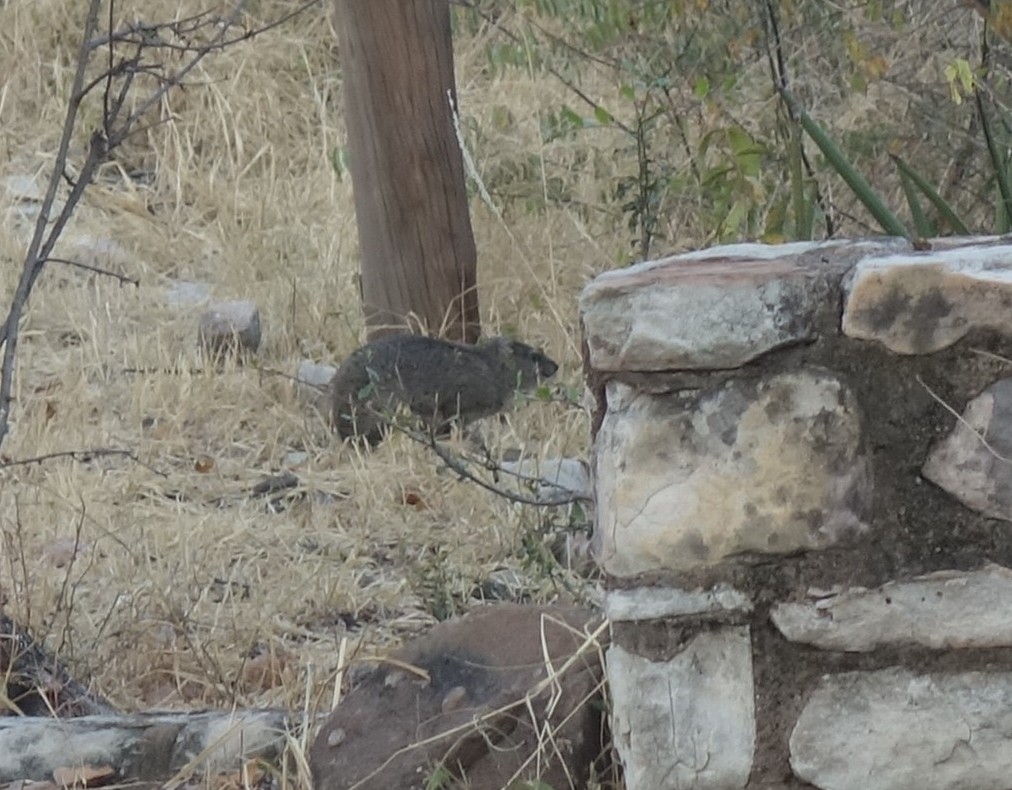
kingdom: Animalia
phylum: Chordata
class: Mammalia
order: Hyracoidea
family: Procaviidae
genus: Heterohyrax
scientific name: Heterohyrax brucei
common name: Bush hyrax
